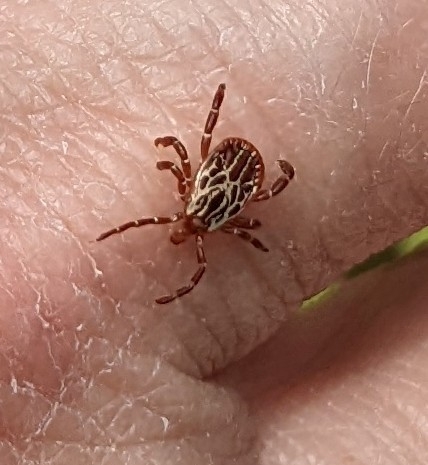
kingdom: Animalia
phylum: Arthropoda
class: Arachnida
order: Ixodida
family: Ixodidae
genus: Amblyomma
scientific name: Amblyomma maculatum
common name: Gulf coast tick
